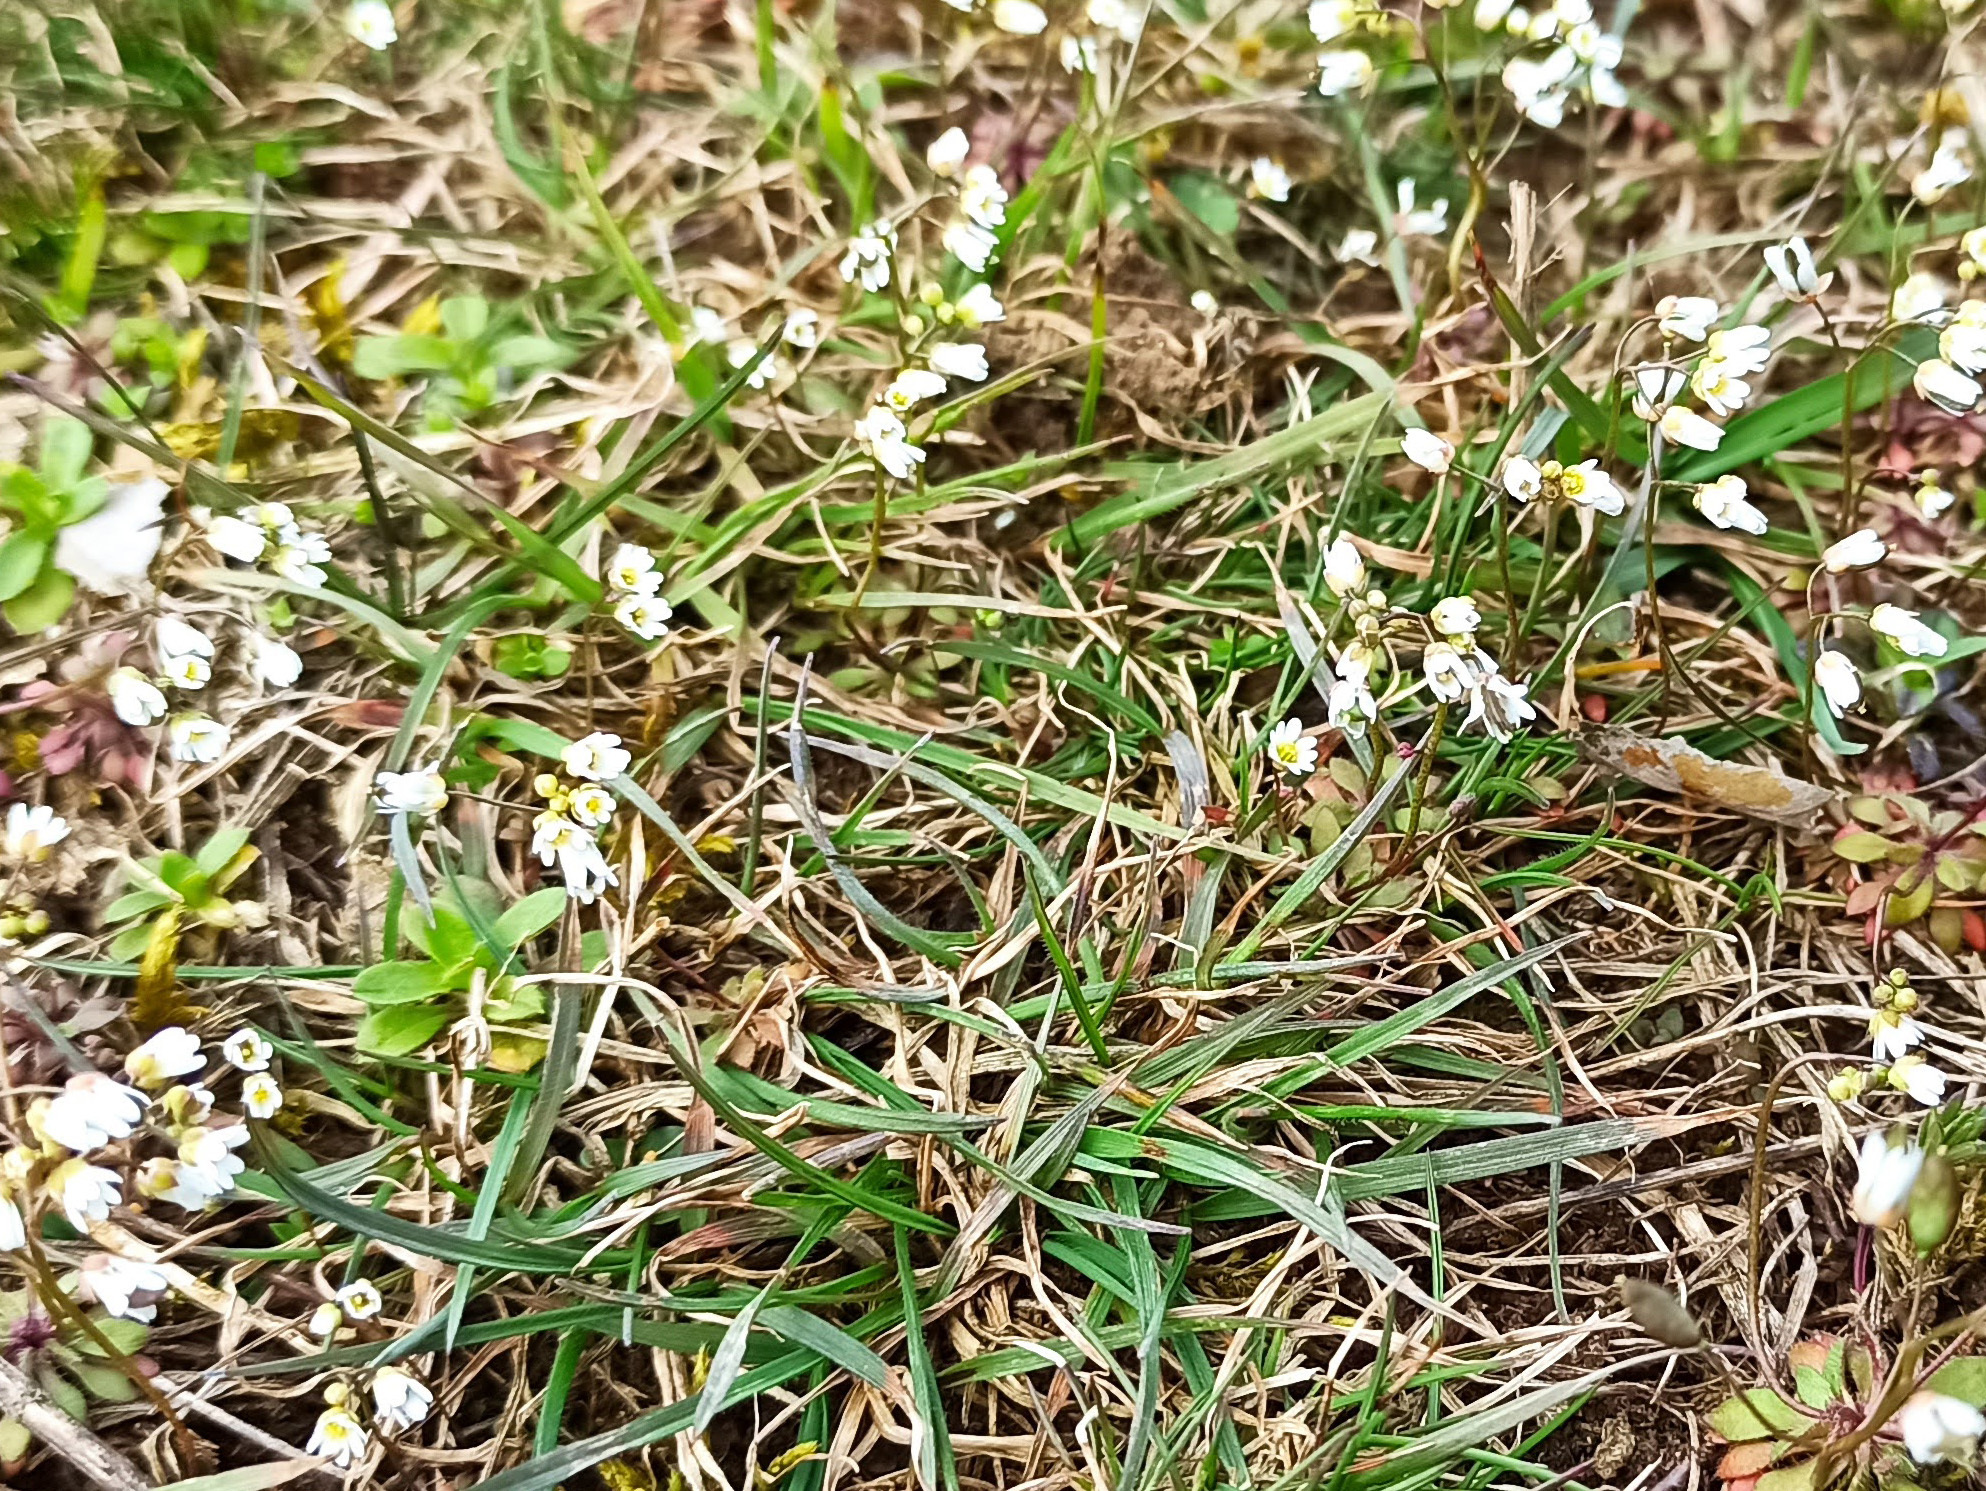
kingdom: Plantae
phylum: Tracheophyta
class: Magnoliopsida
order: Brassicales
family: Brassicaceae
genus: Draba
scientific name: Draba verna
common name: Spring draba
